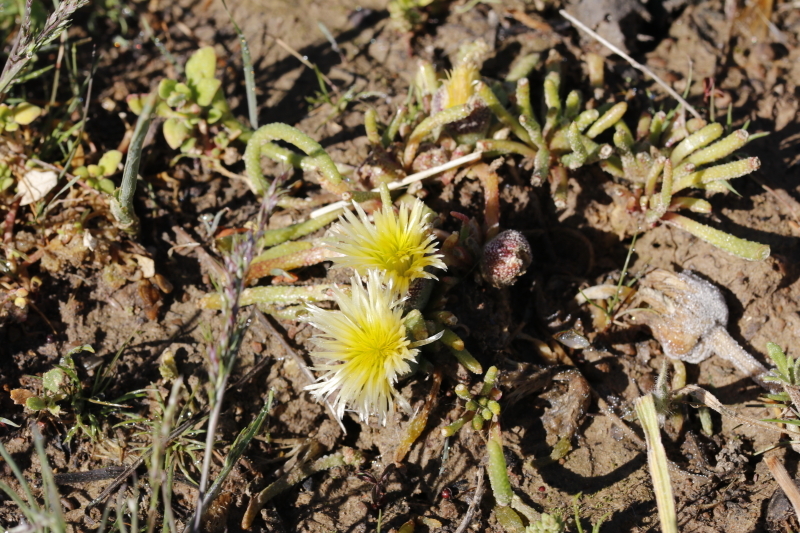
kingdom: Plantae
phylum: Tracheophyta
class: Magnoliopsida
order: Caryophyllales
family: Aizoaceae
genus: Mesembryanthemum
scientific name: Mesembryanthemum resurgens
